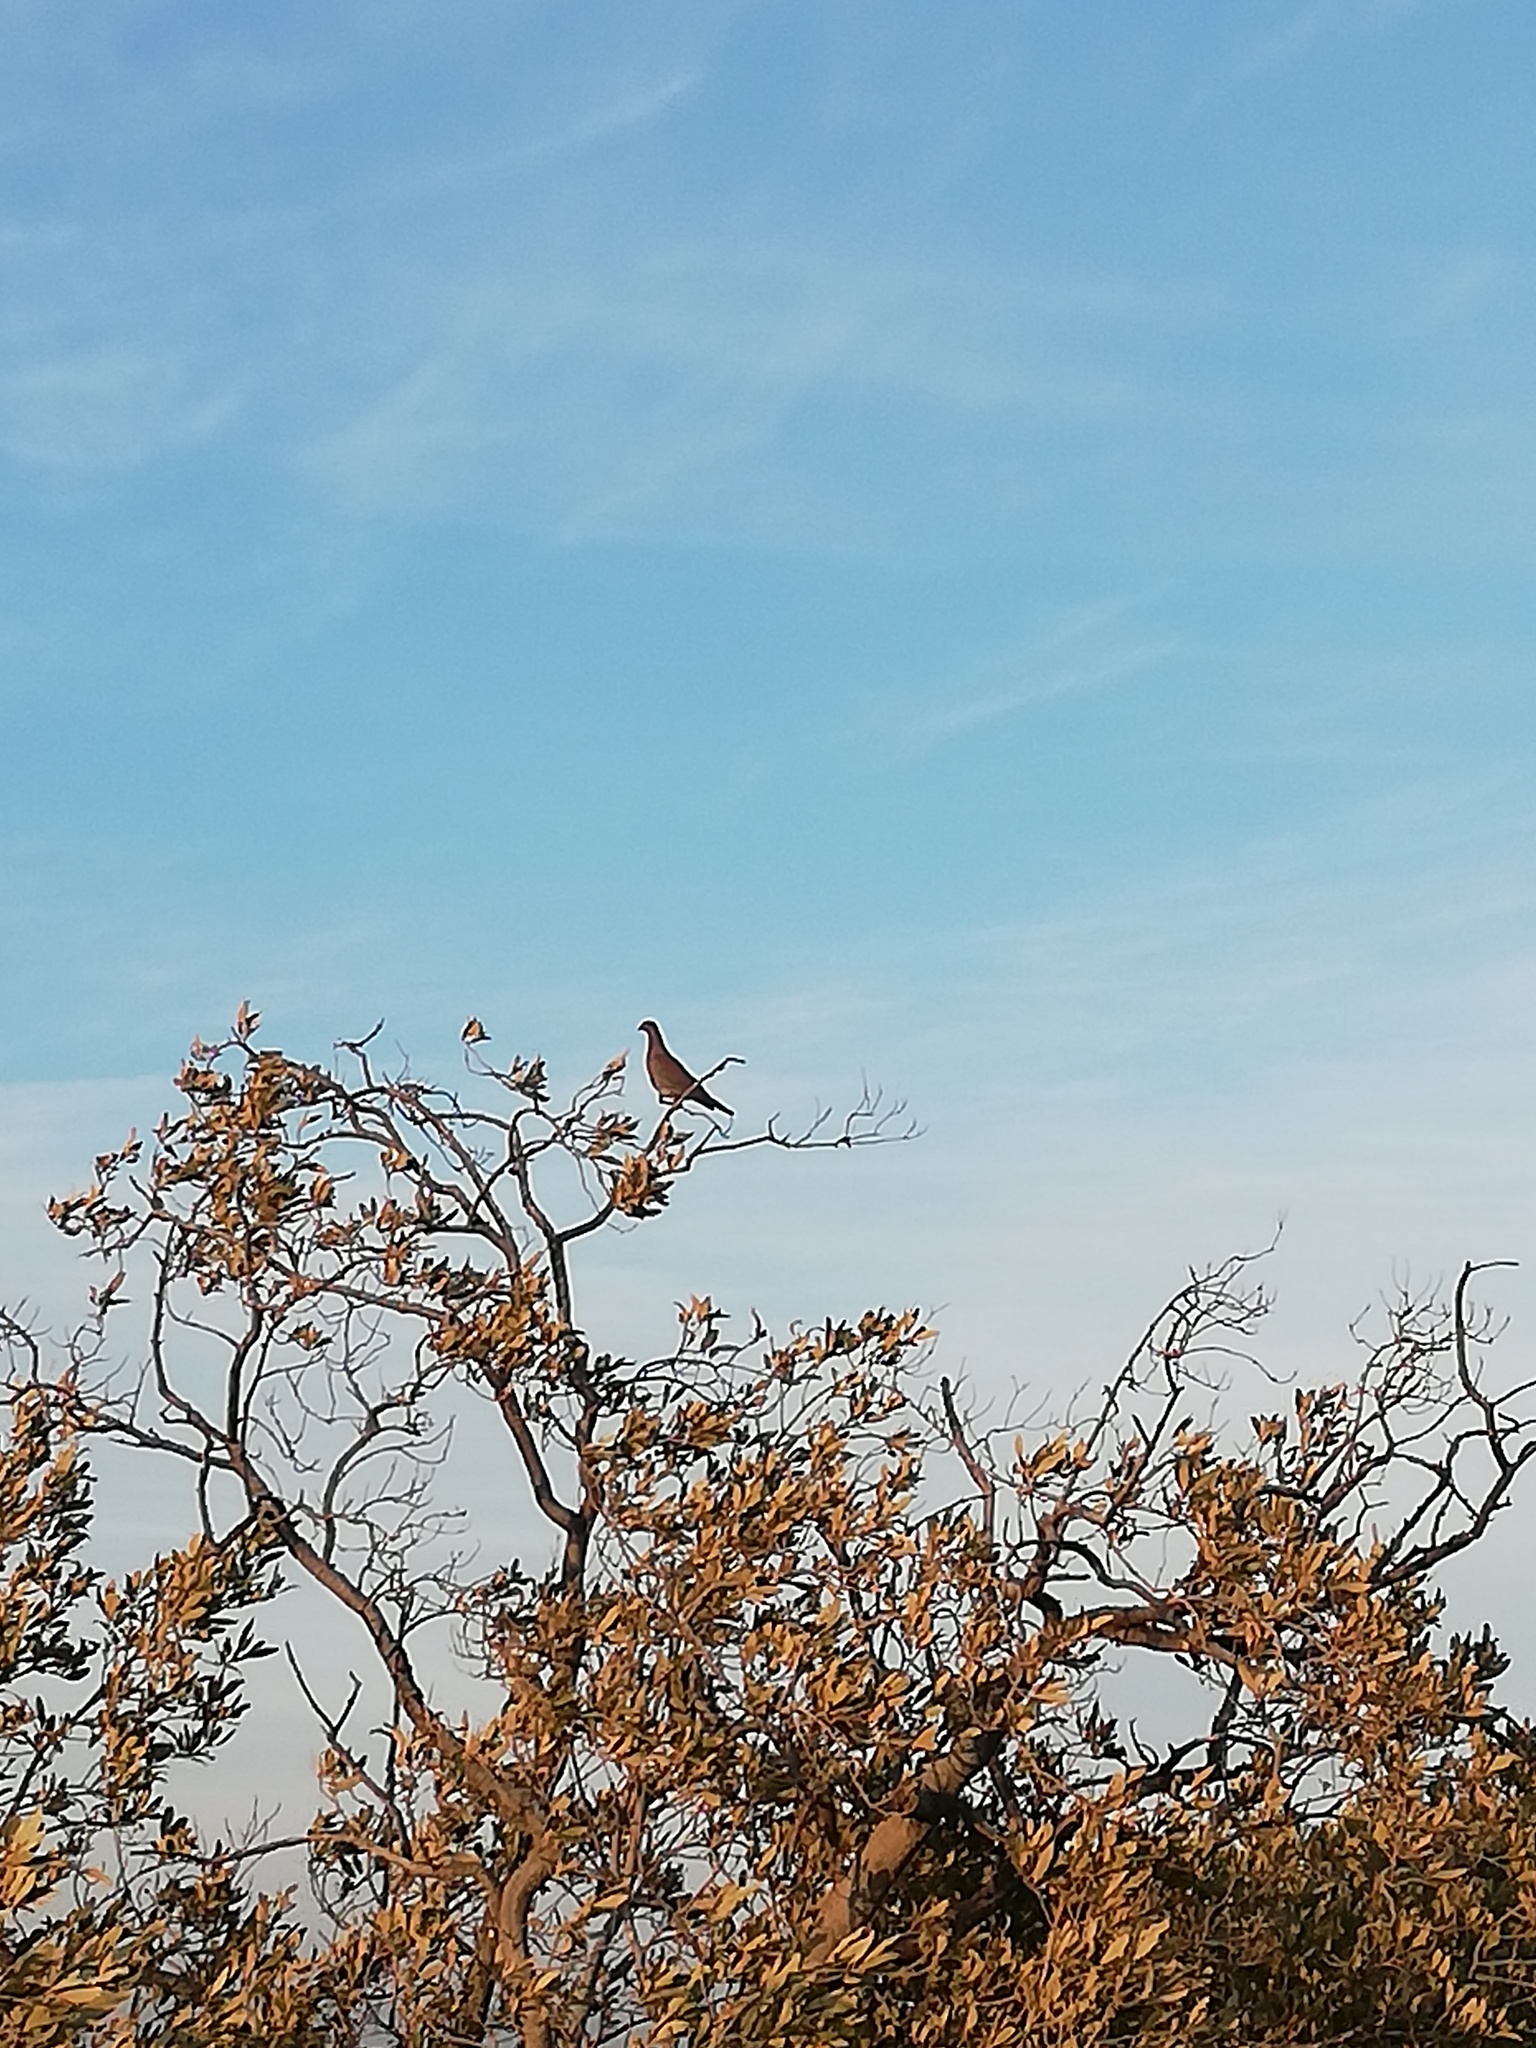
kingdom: Animalia
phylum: Chordata
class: Aves
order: Columbiformes
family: Columbidae
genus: Patagioenas
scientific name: Patagioenas flavirostris
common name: Red-billed pigeon
